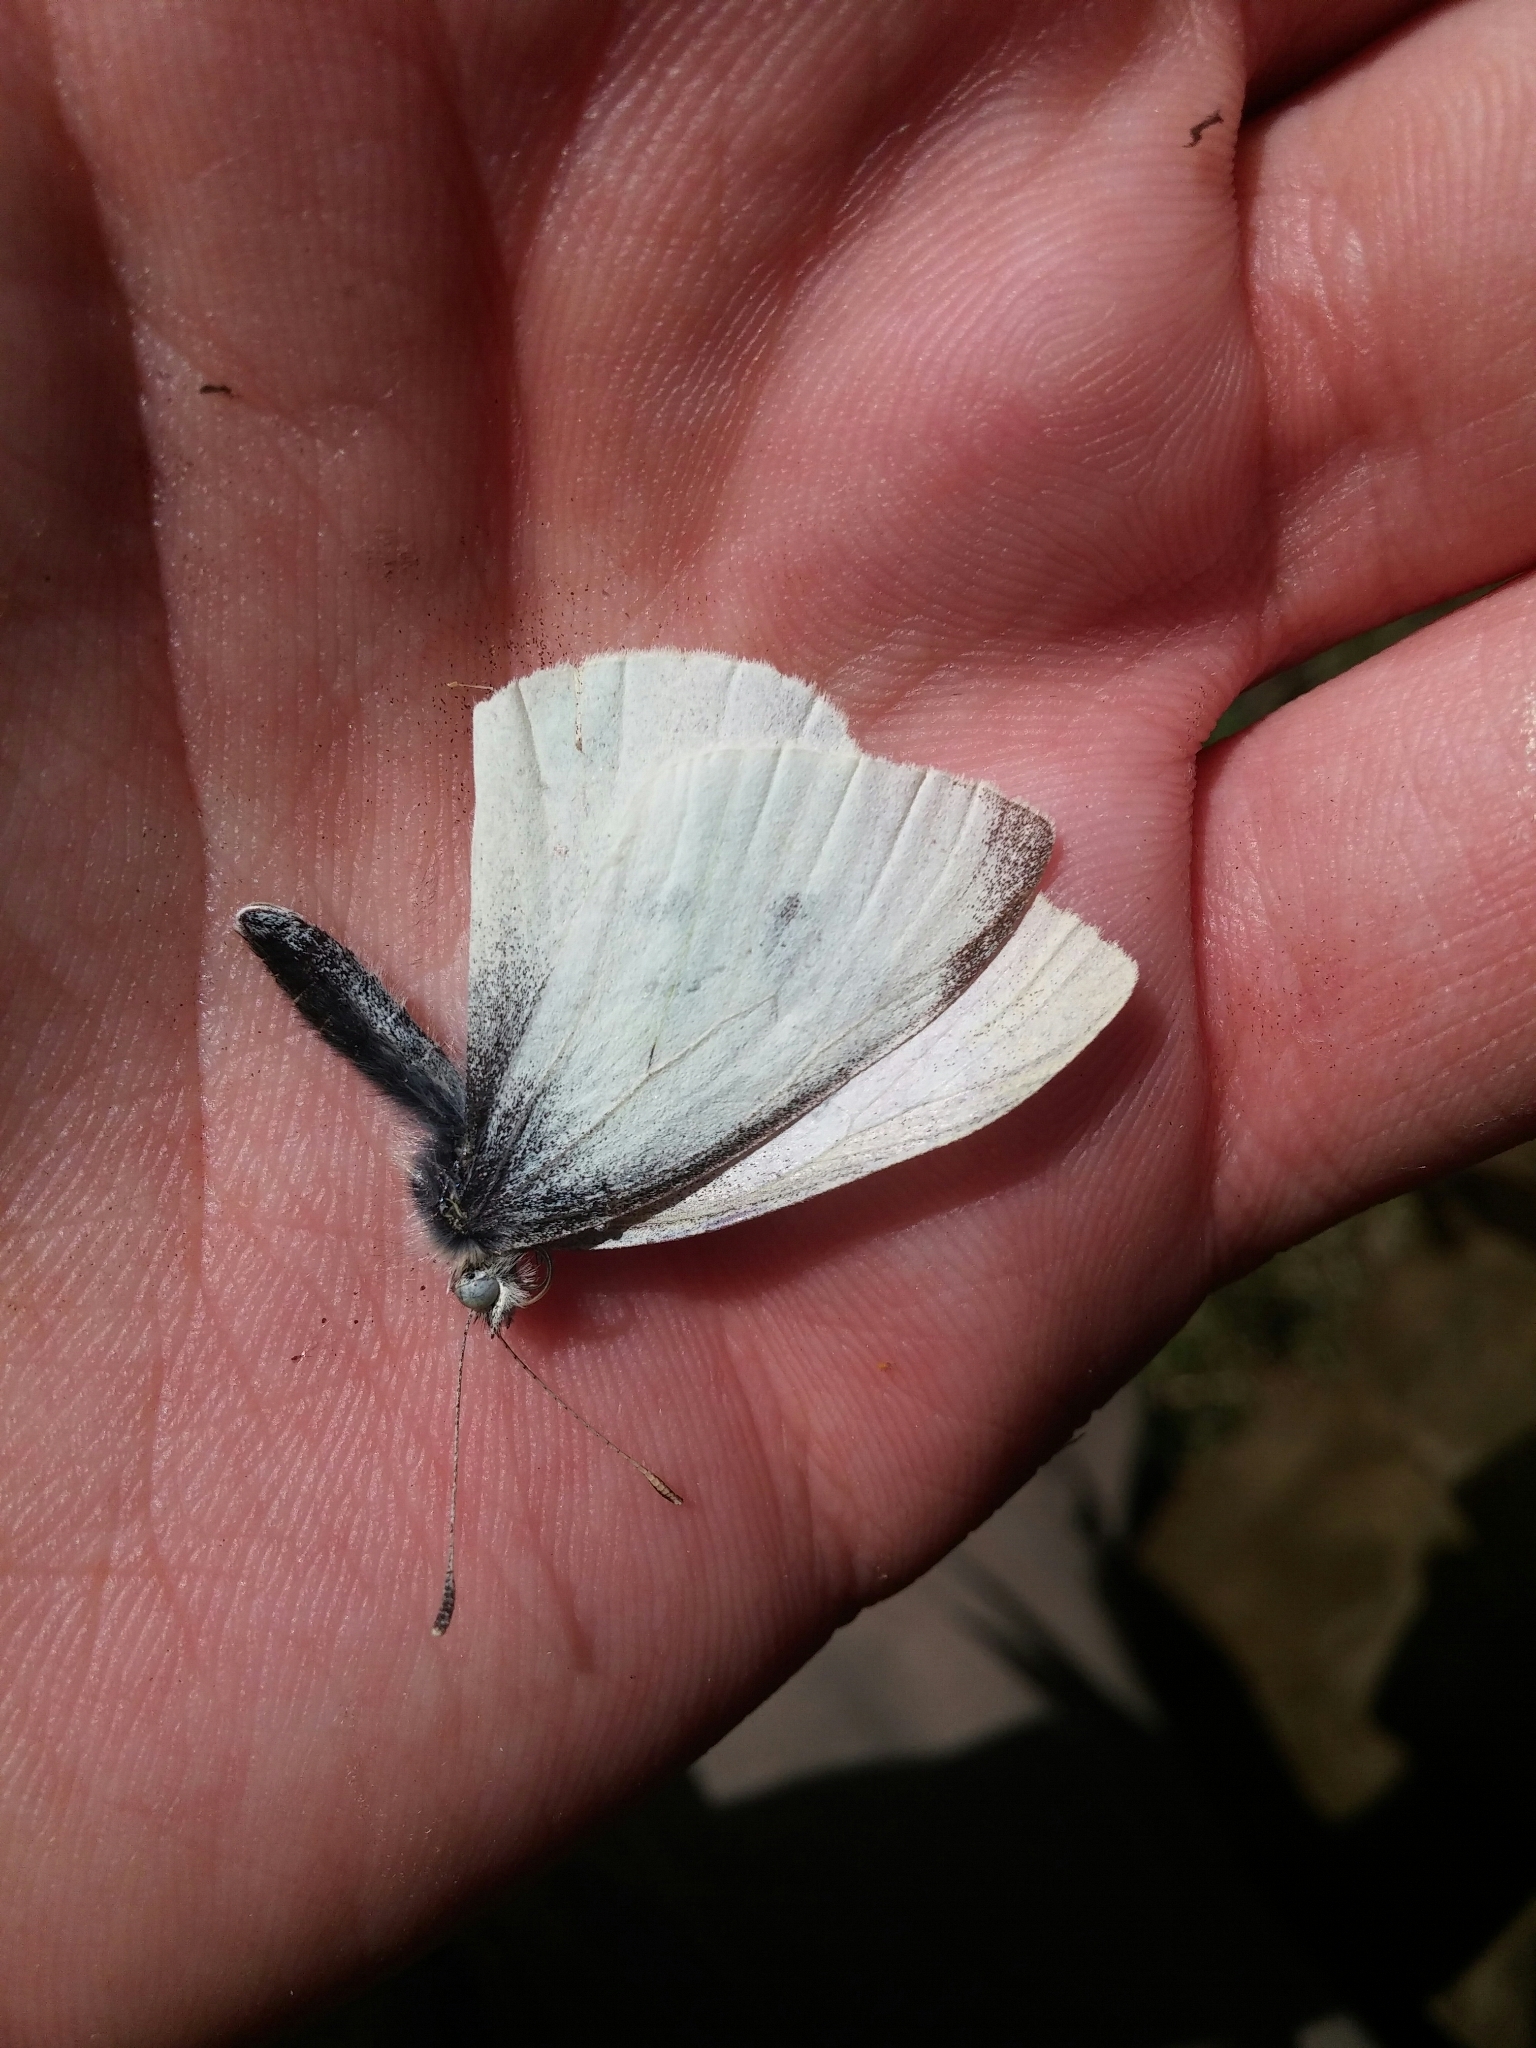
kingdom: Animalia
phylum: Arthropoda
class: Insecta
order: Lepidoptera
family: Pieridae
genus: Pieris
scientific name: Pieris rapae
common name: Small white
